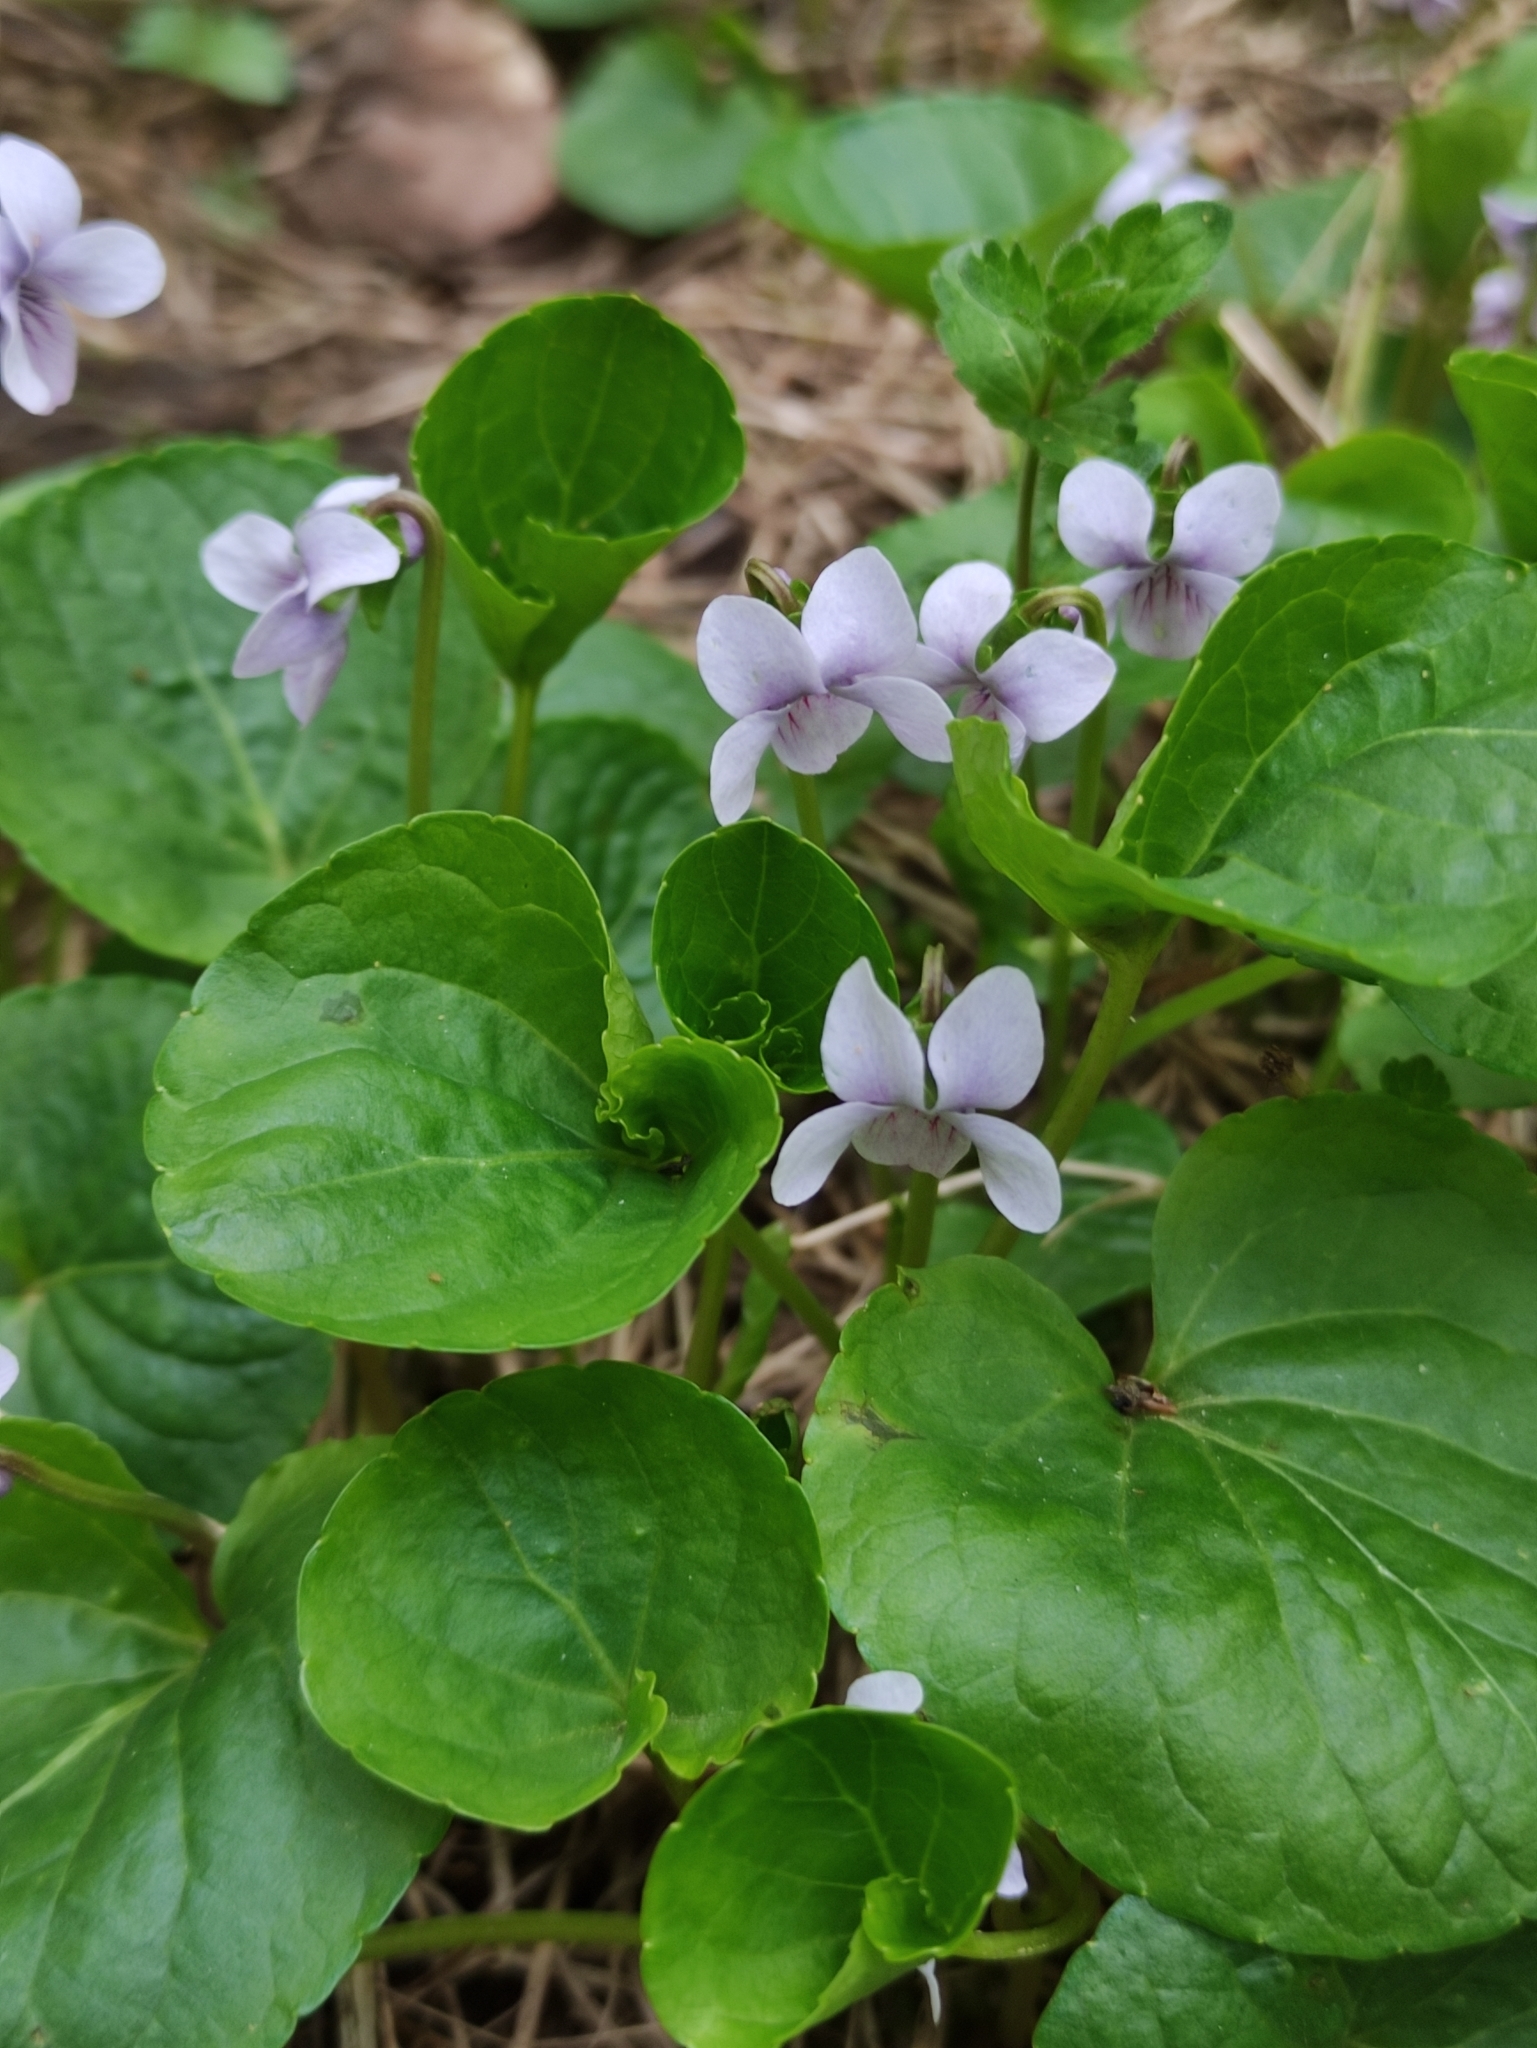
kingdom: Plantae
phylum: Tracheophyta
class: Magnoliopsida
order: Malpighiales
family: Violaceae
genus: Viola
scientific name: Viola palustris
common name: Marsh violet
